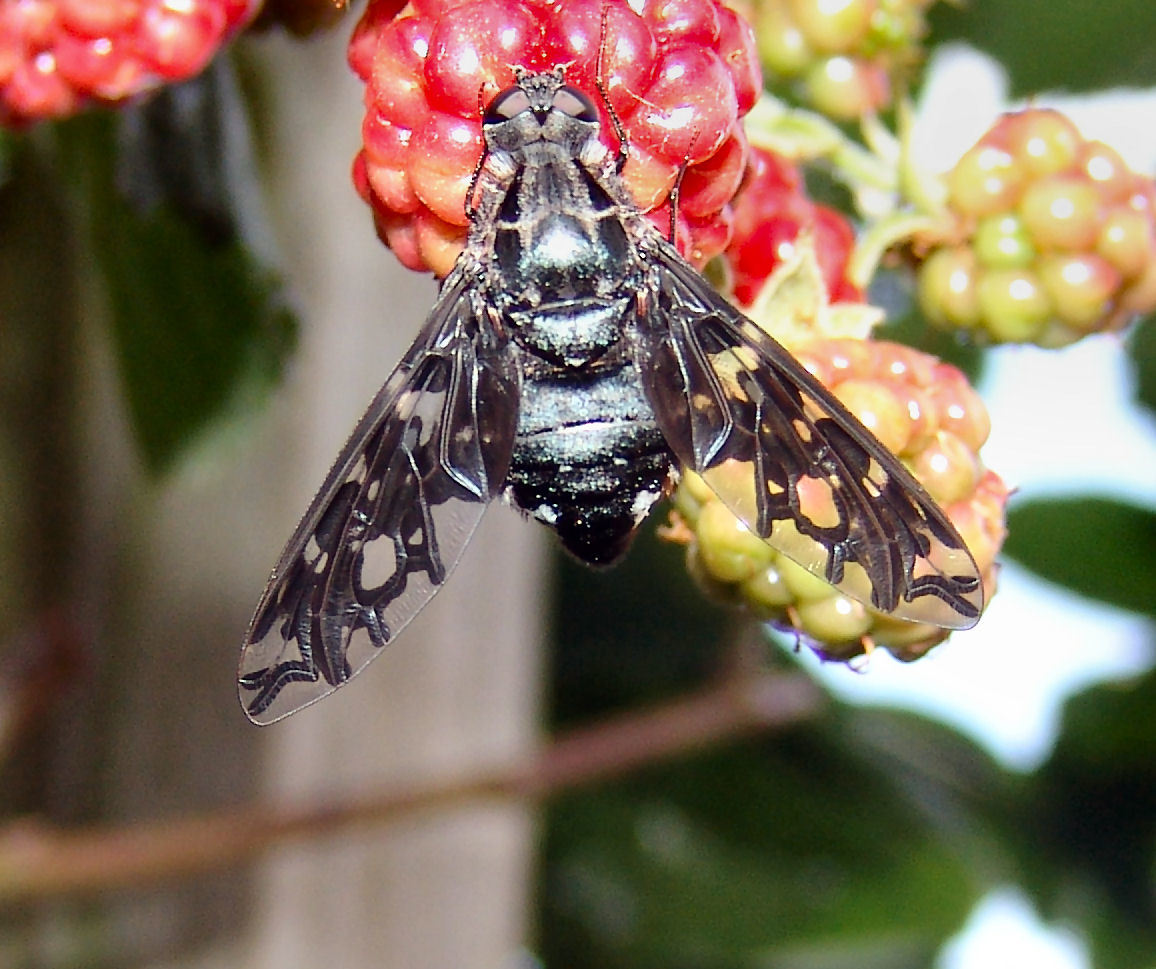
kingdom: Animalia
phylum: Arthropoda
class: Insecta
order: Diptera
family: Bombyliidae
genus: Xenox
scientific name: Xenox tigrinus
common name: Tiger bee fly
